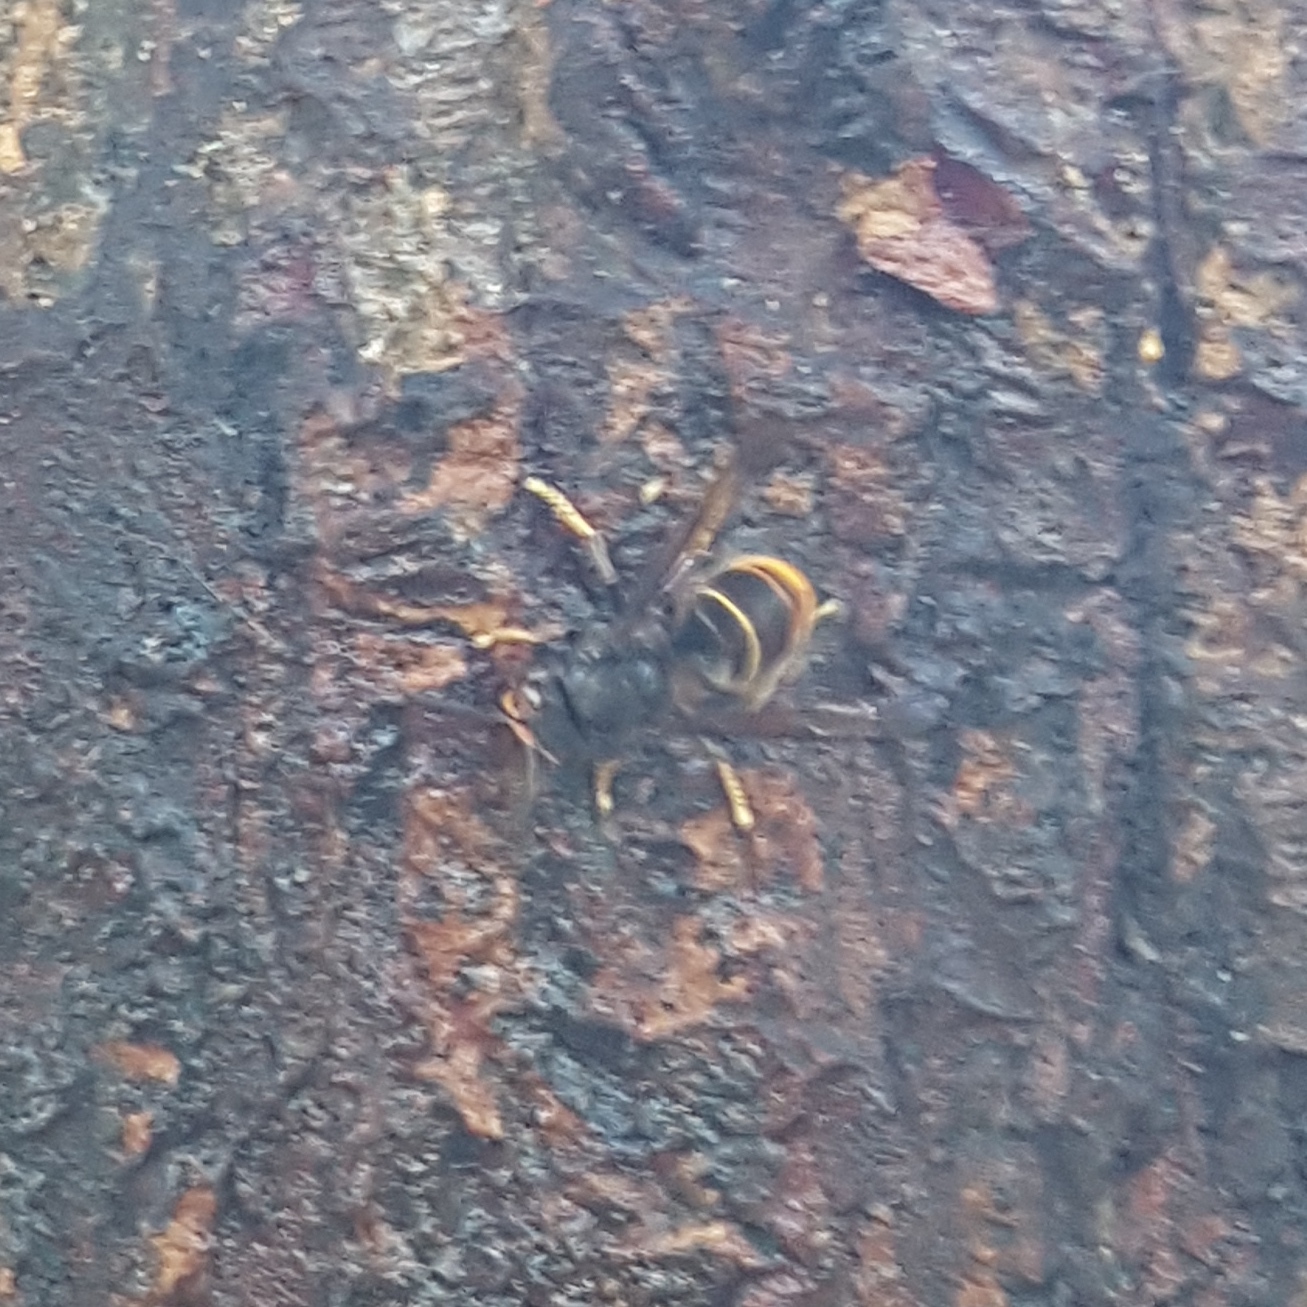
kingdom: Animalia
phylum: Arthropoda
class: Insecta
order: Hymenoptera
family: Vespidae
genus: Vespa
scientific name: Vespa velutina
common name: Asian hornet
